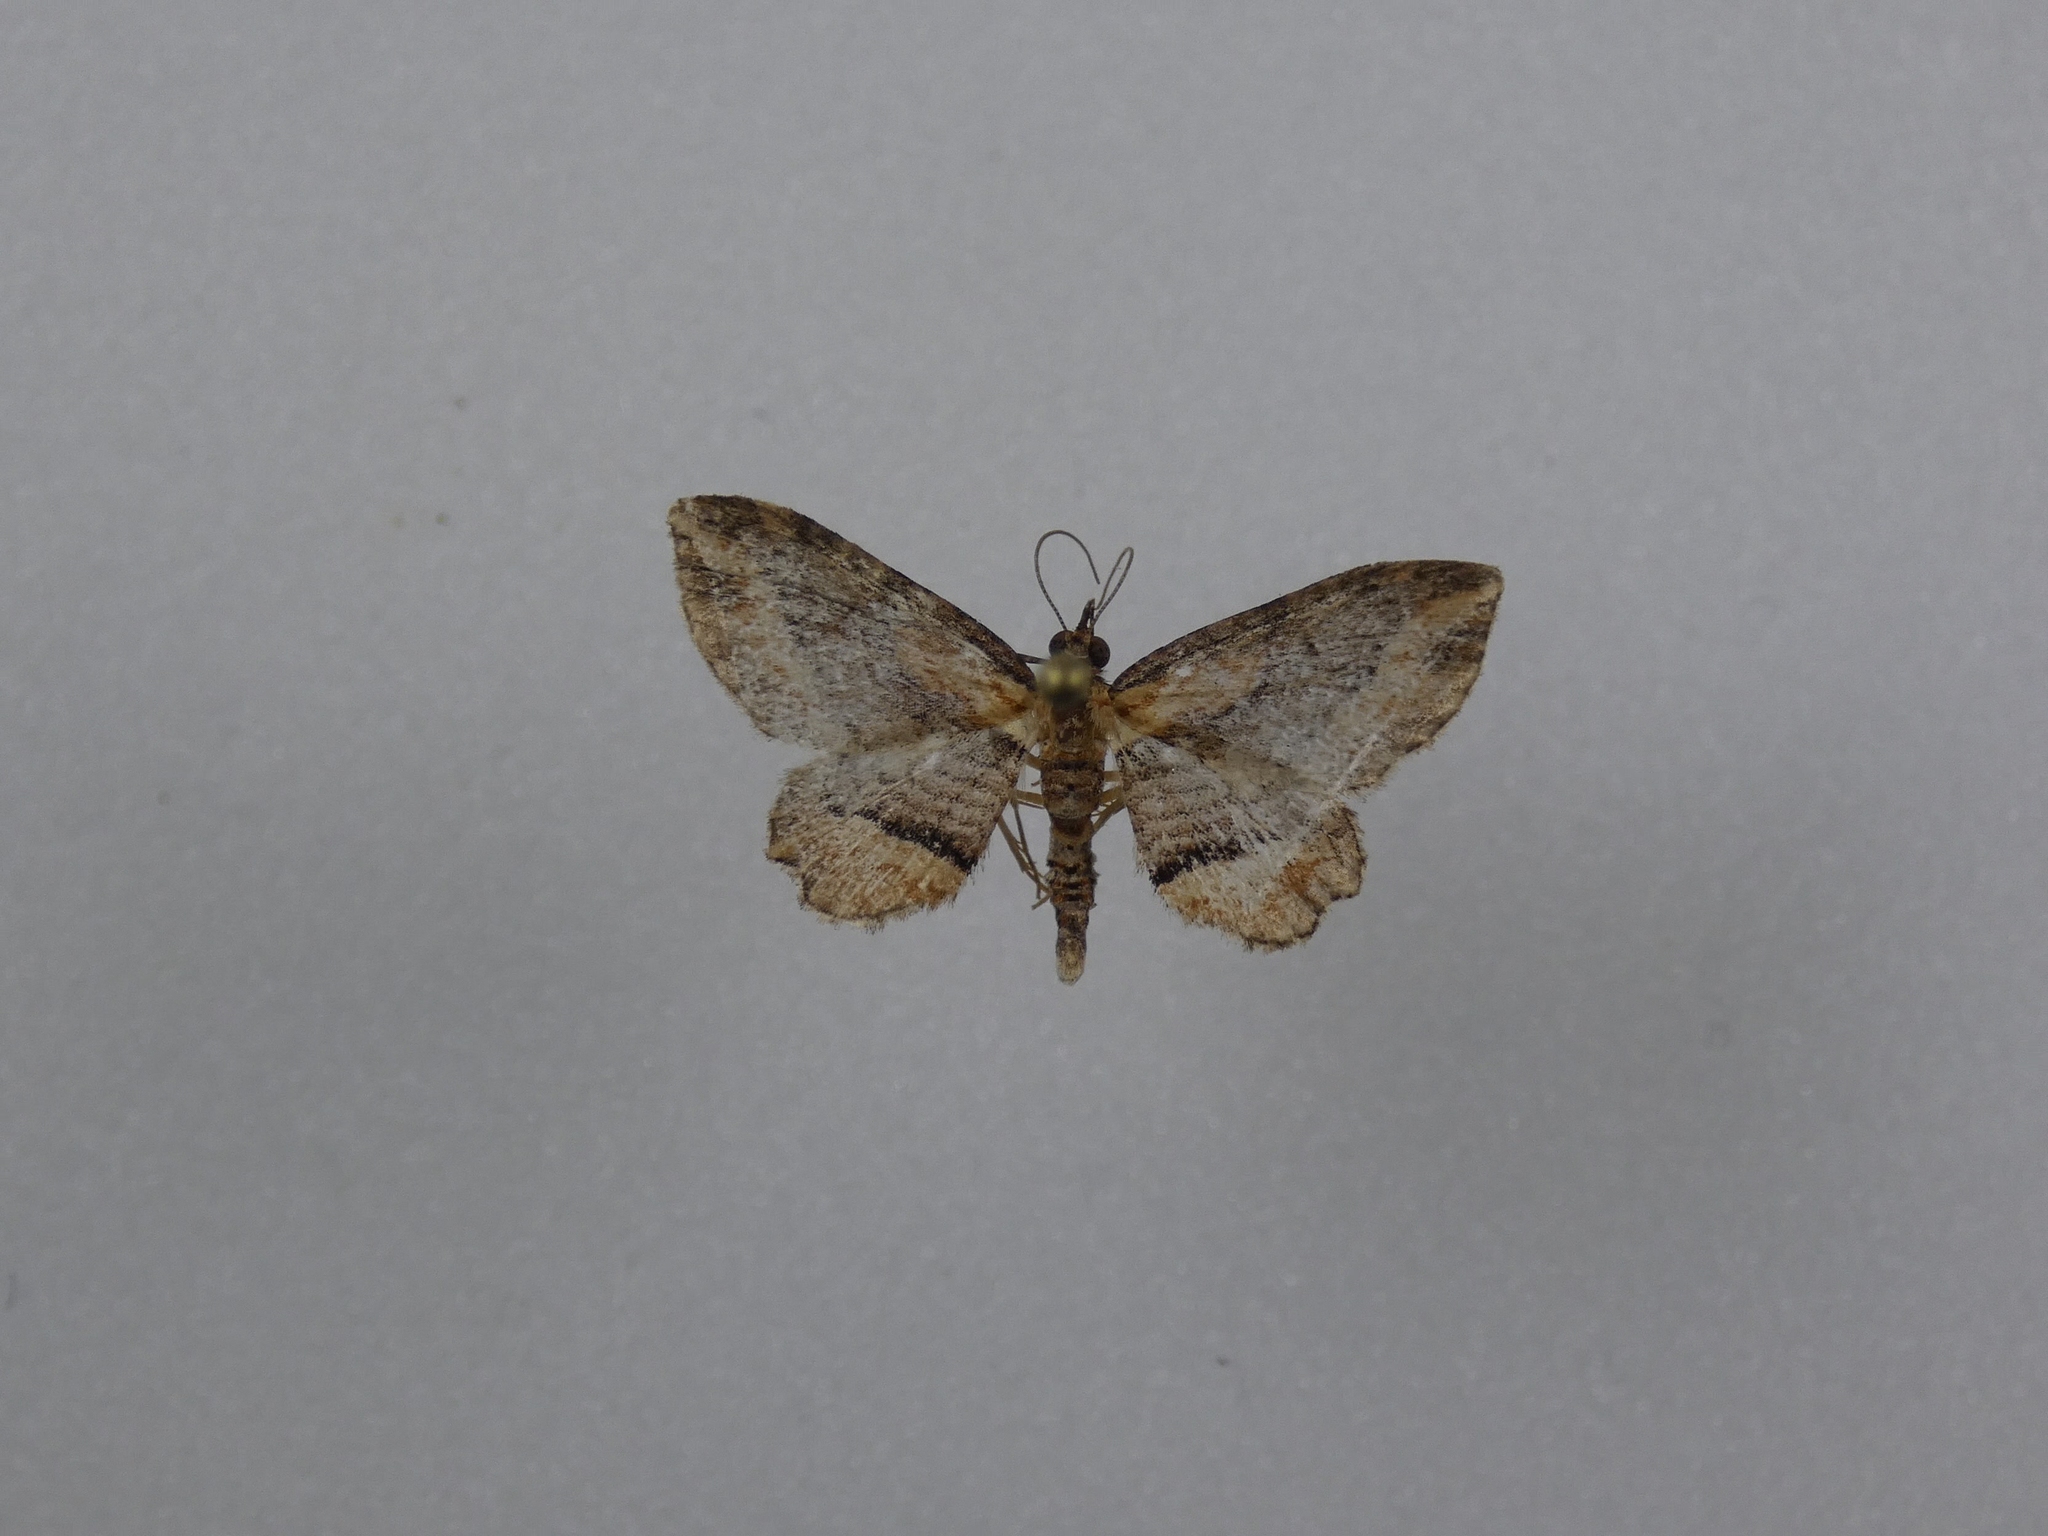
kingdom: Animalia
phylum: Arthropoda
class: Insecta
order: Lepidoptera
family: Geometridae
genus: Chloroclystis
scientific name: Chloroclystis filata
